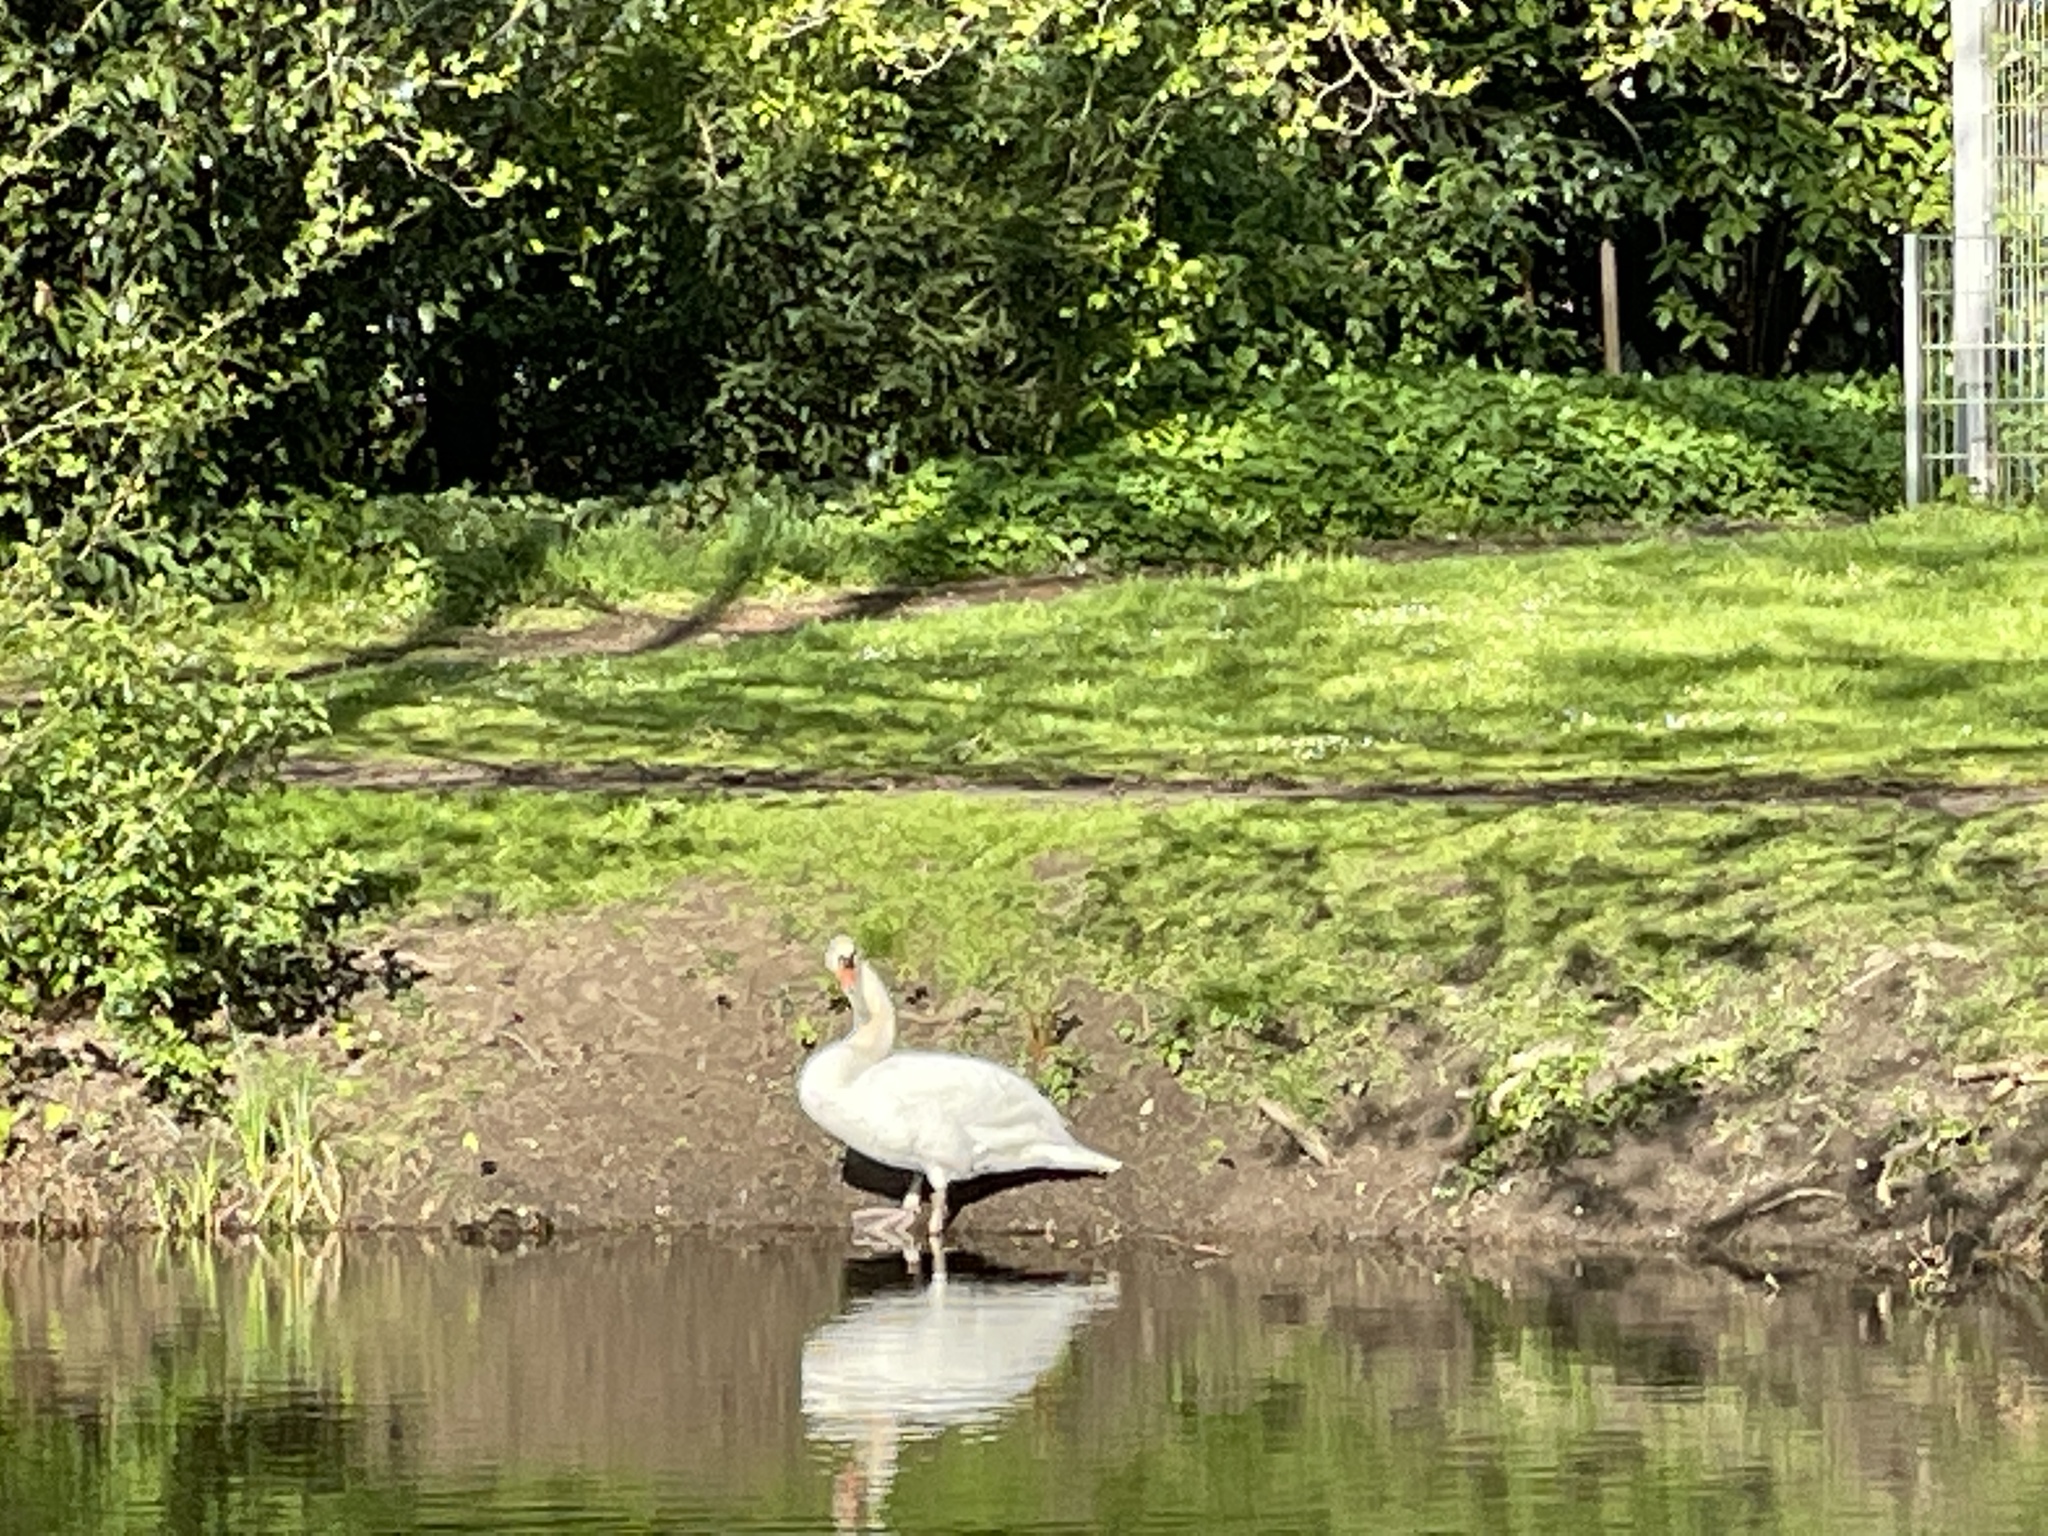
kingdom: Animalia
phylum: Chordata
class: Aves
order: Anseriformes
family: Anatidae
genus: Cygnus
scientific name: Cygnus olor
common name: Mute swan
